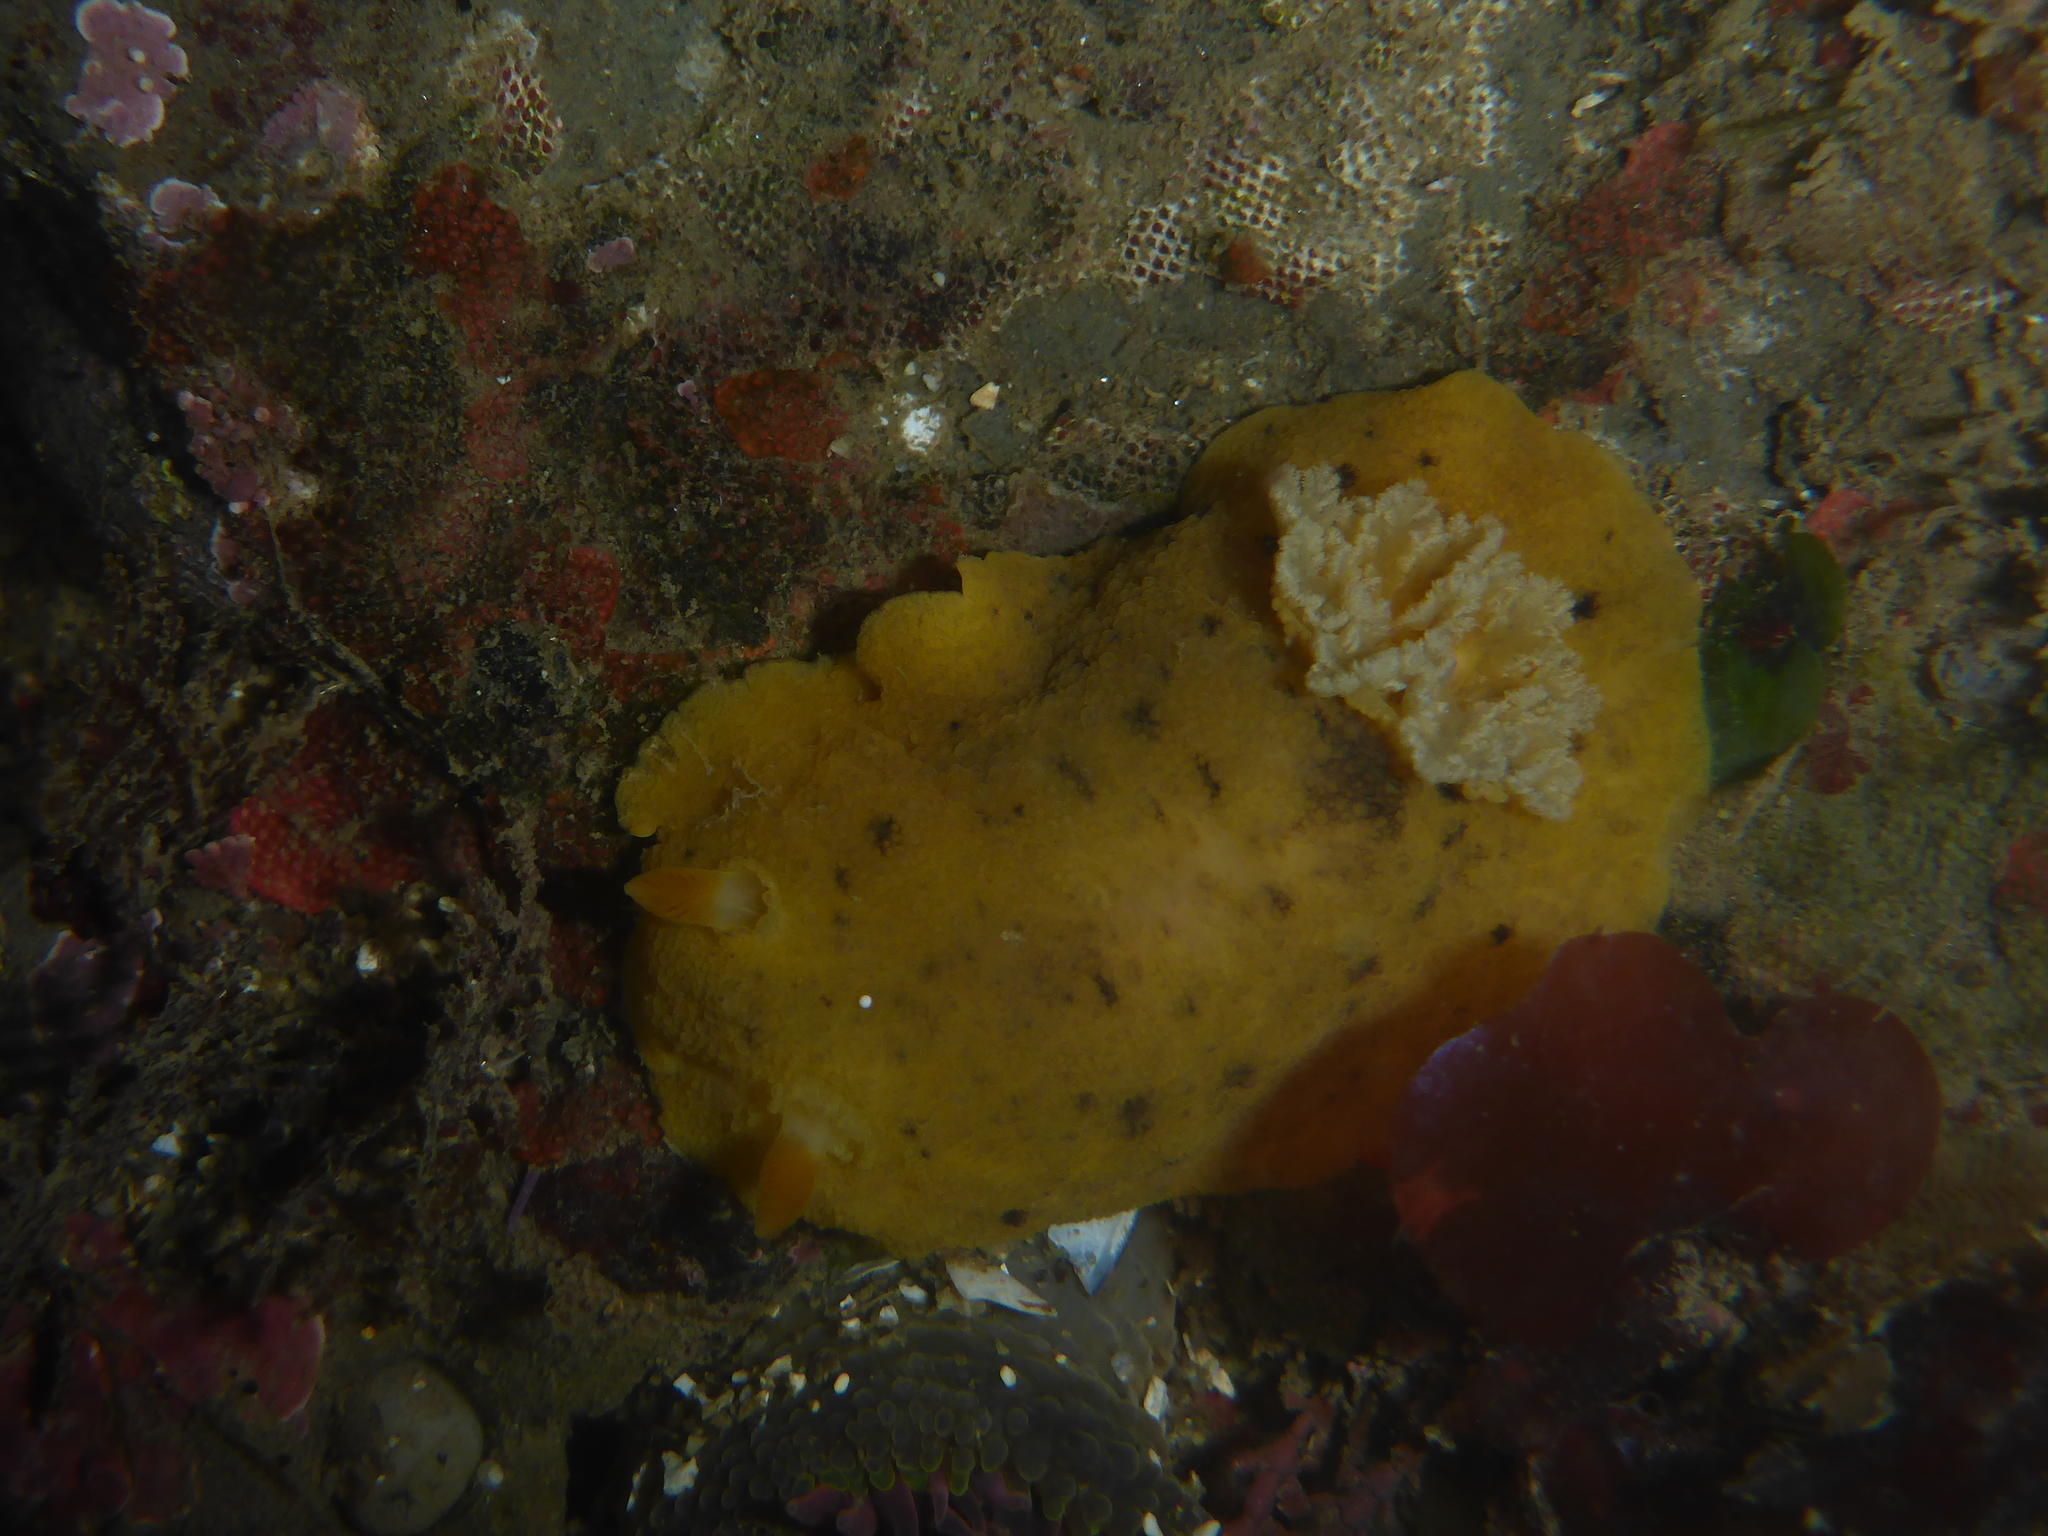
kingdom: Animalia
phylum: Mollusca
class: Gastropoda
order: Nudibranchia
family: Discodorididae
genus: Geitodoris
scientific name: Geitodoris heathi
